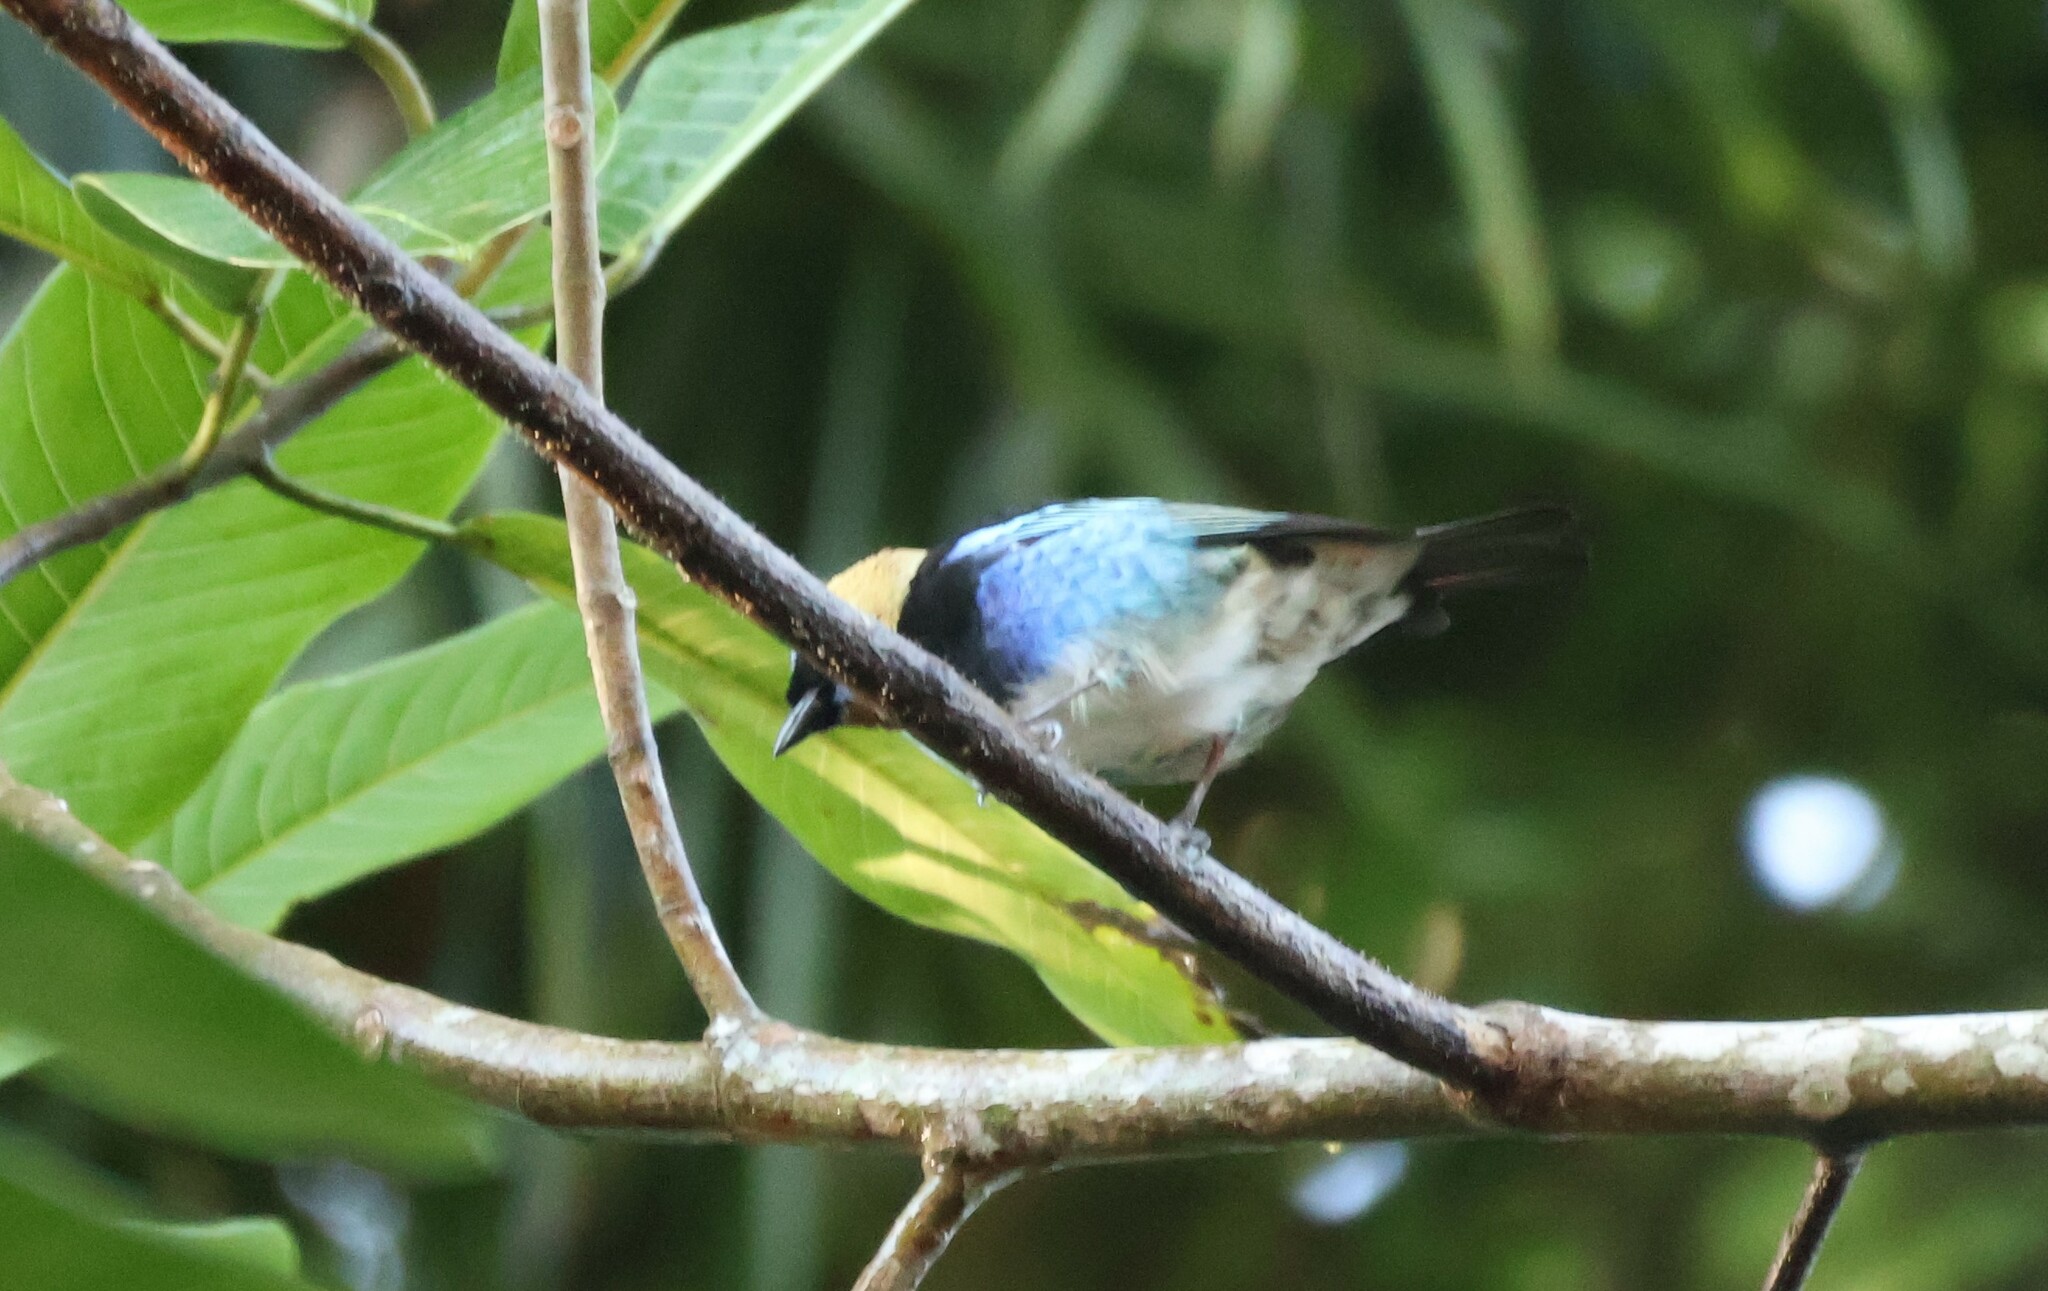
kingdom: Animalia
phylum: Chordata
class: Aves
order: Passeriformes
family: Thraupidae
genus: Stilpnia
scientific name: Stilpnia larvata
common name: Golden-hooded tanager
